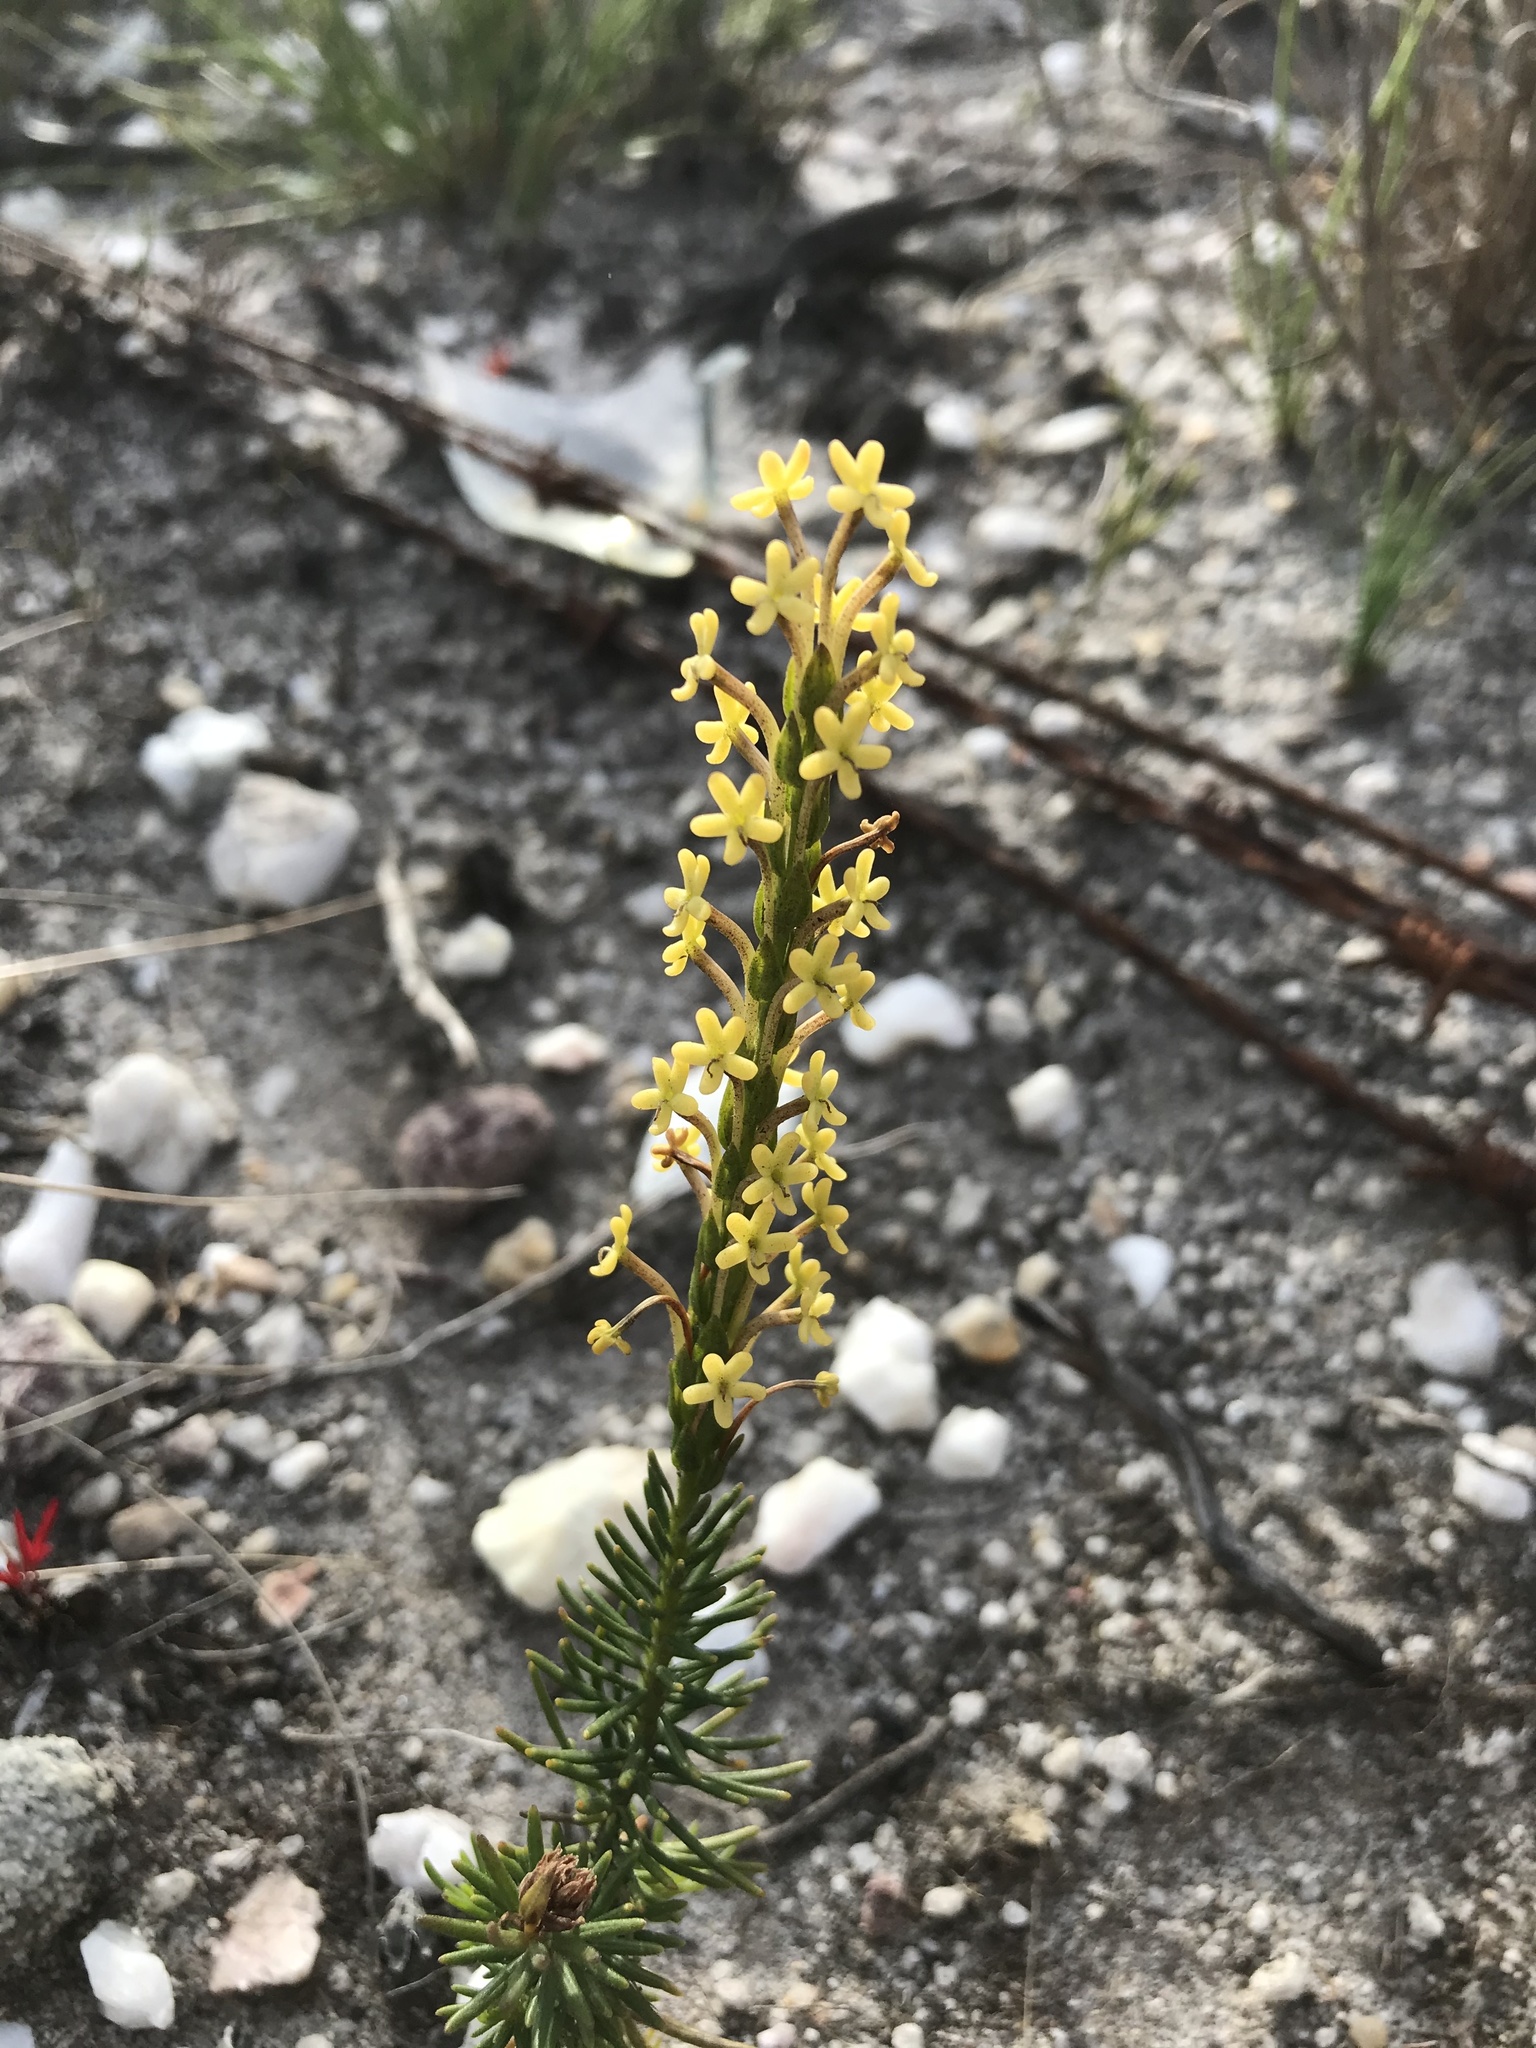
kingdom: Plantae
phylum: Tracheophyta
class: Magnoliopsida
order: Lamiales
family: Scrophulariaceae
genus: Microdon
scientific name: Microdon dubius
